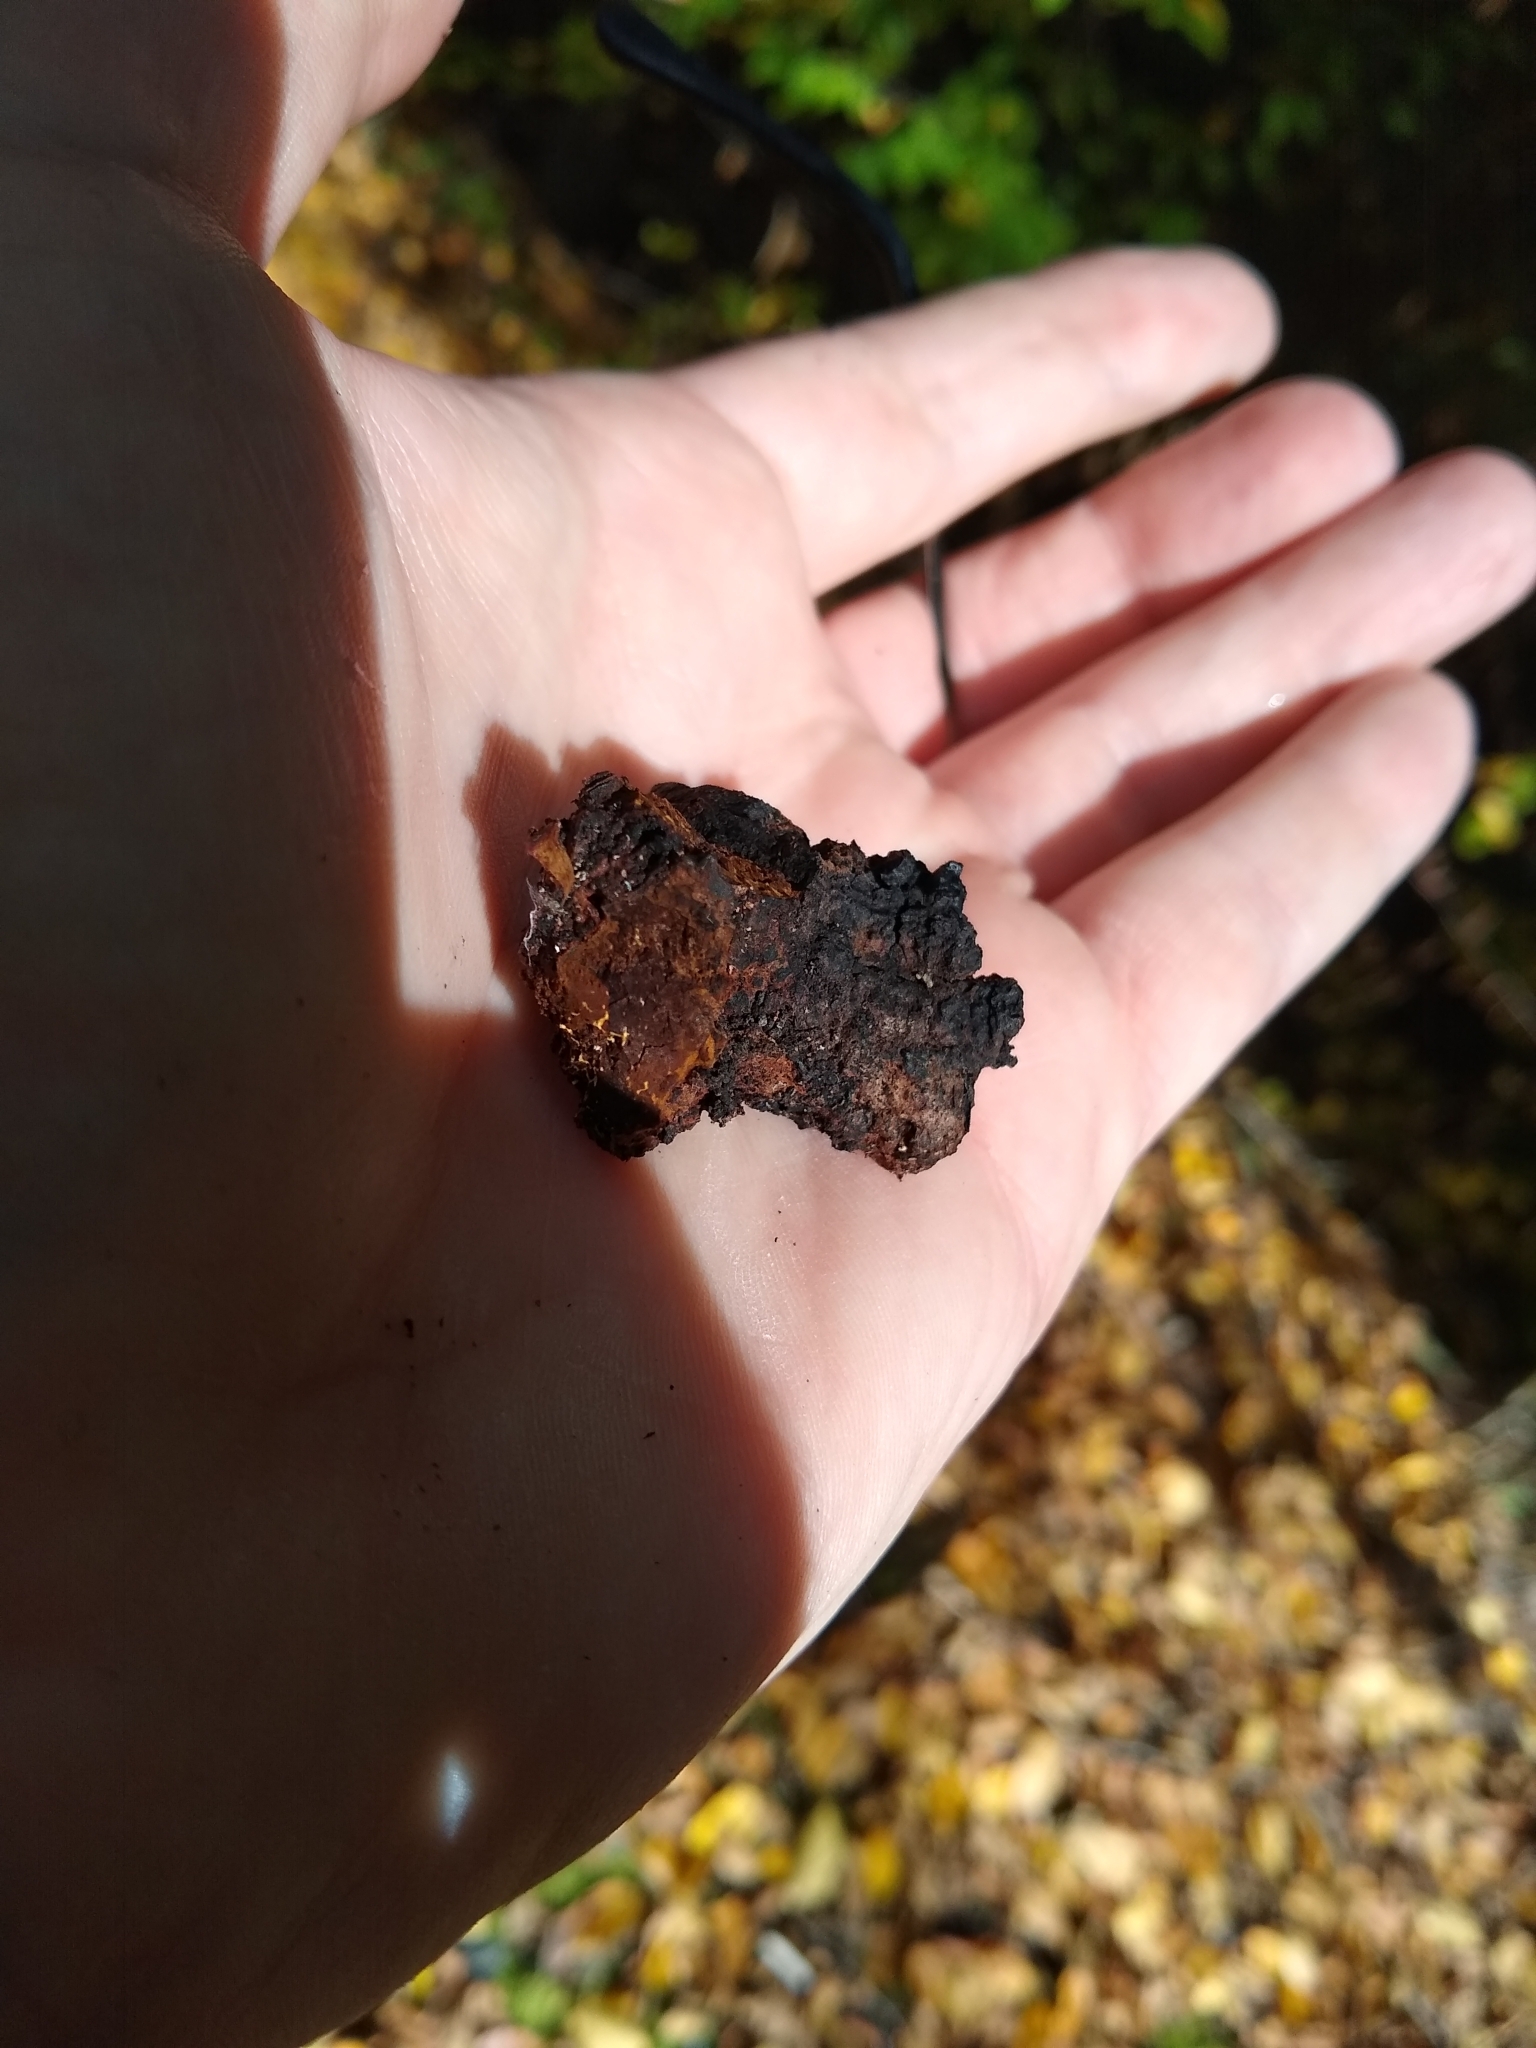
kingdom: Fungi
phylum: Basidiomycota
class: Agaricomycetes
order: Hymenochaetales
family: Hymenochaetaceae
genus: Inonotus
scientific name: Inonotus obliquus
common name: Chaga
